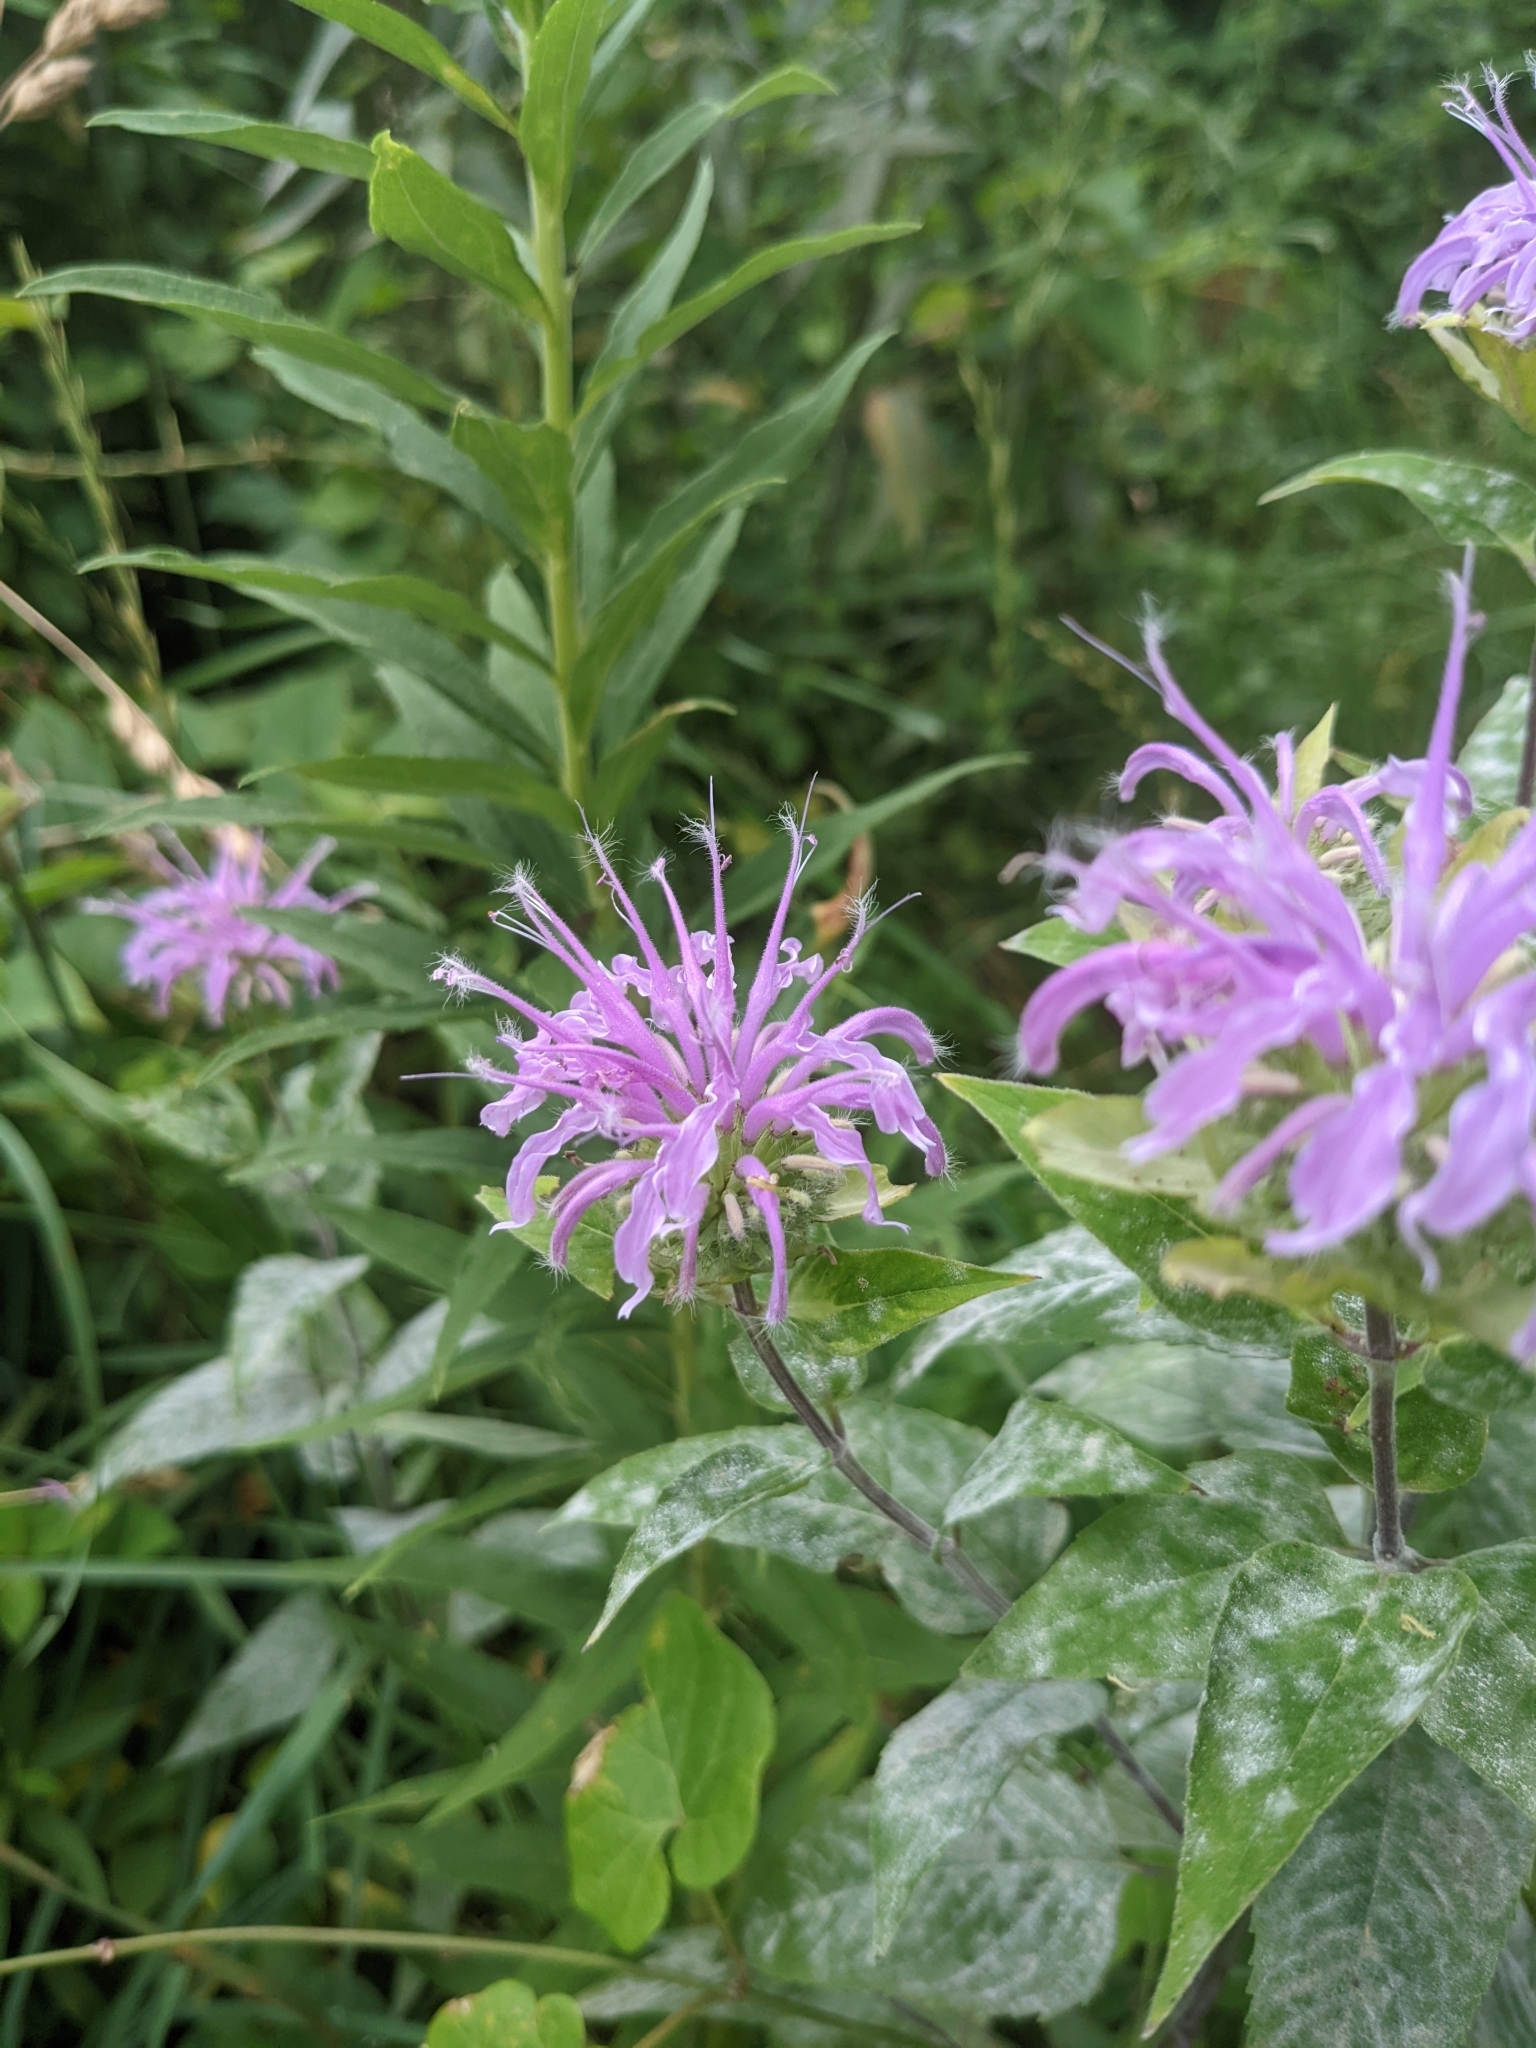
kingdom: Plantae
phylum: Tracheophyta
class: Magnoliopsida
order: Lamiales
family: Lamiaceae
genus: Monarda
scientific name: Monarda fistulosa
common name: Purple beebalm
